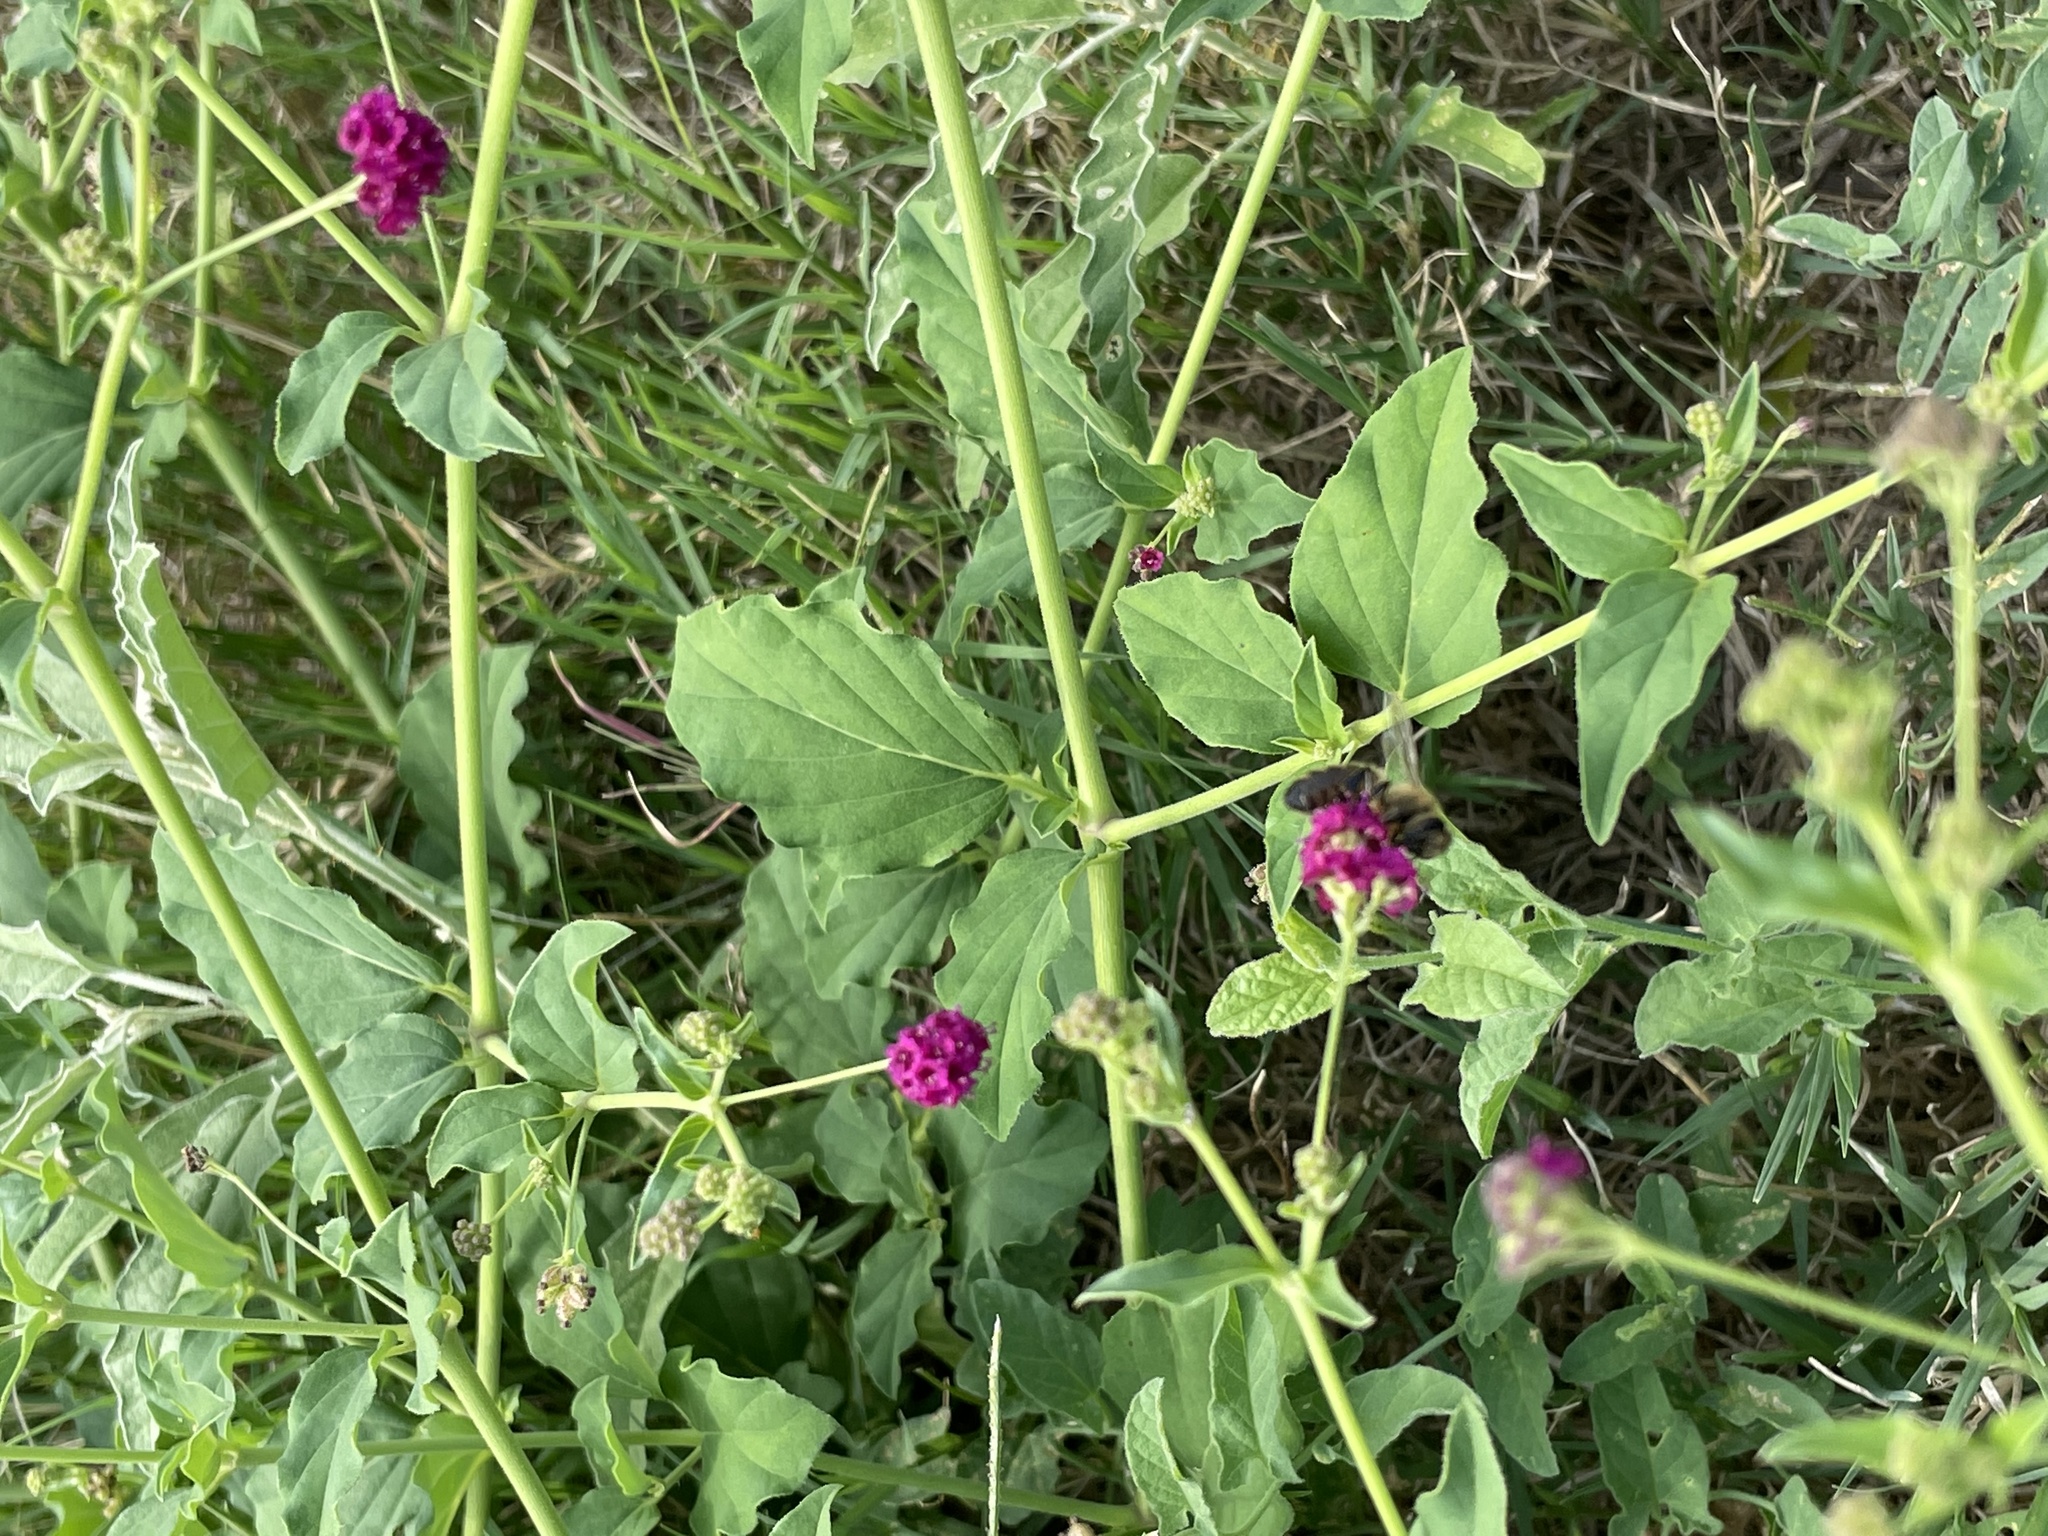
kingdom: Plantae
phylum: Tracheophyta
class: Magnoliopsida
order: Caryophyllales
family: Nyctaginaceae
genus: Boerhavia
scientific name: Boerhavia coccinea
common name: Scarlet spiderling
